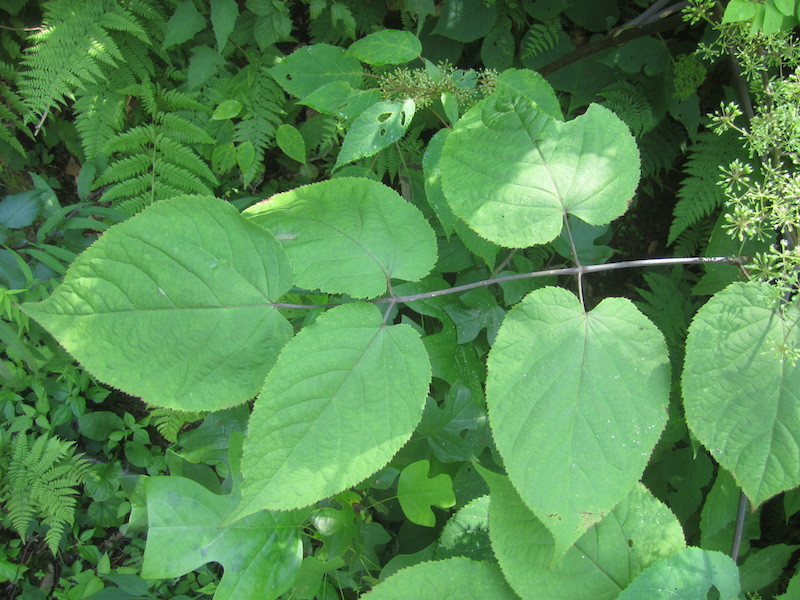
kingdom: Plantae
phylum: Tracheophyta
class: Magnoliopsida
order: Apiales
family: Araliaceae
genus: Aralia
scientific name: Aralia racemosa
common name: American-spikenard
